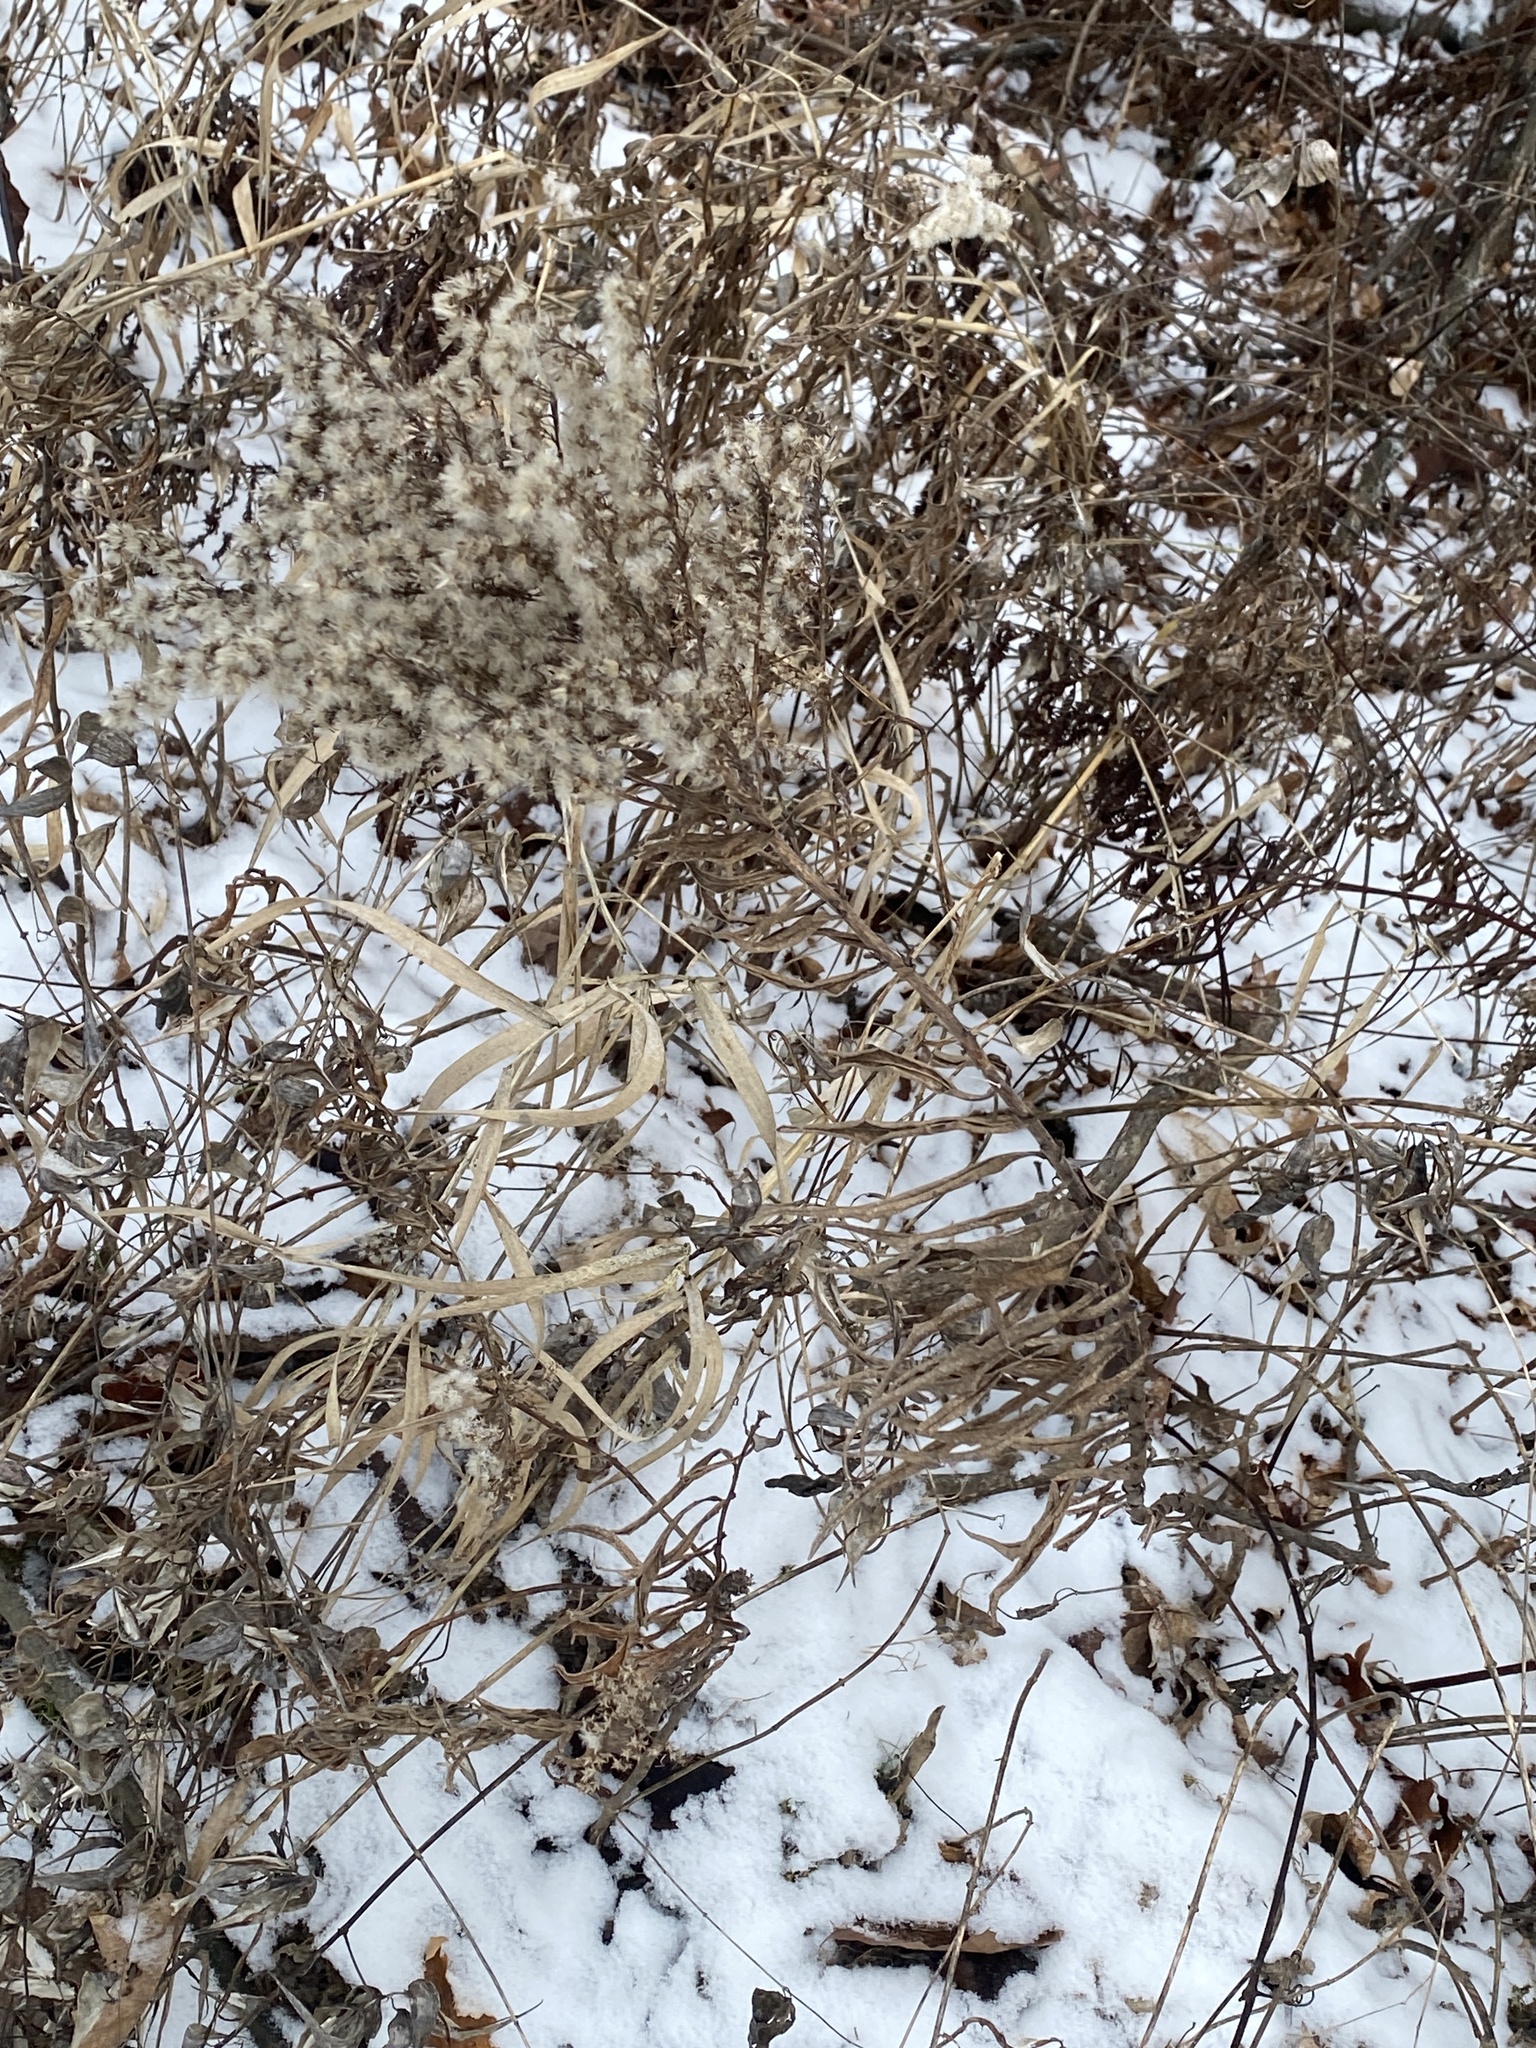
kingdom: Plantae
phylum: Tracheophyta
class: Magnoliopsida
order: Asterales
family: Asteraceae
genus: Solidago
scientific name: Solidago altissima
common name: Late goldenrod
